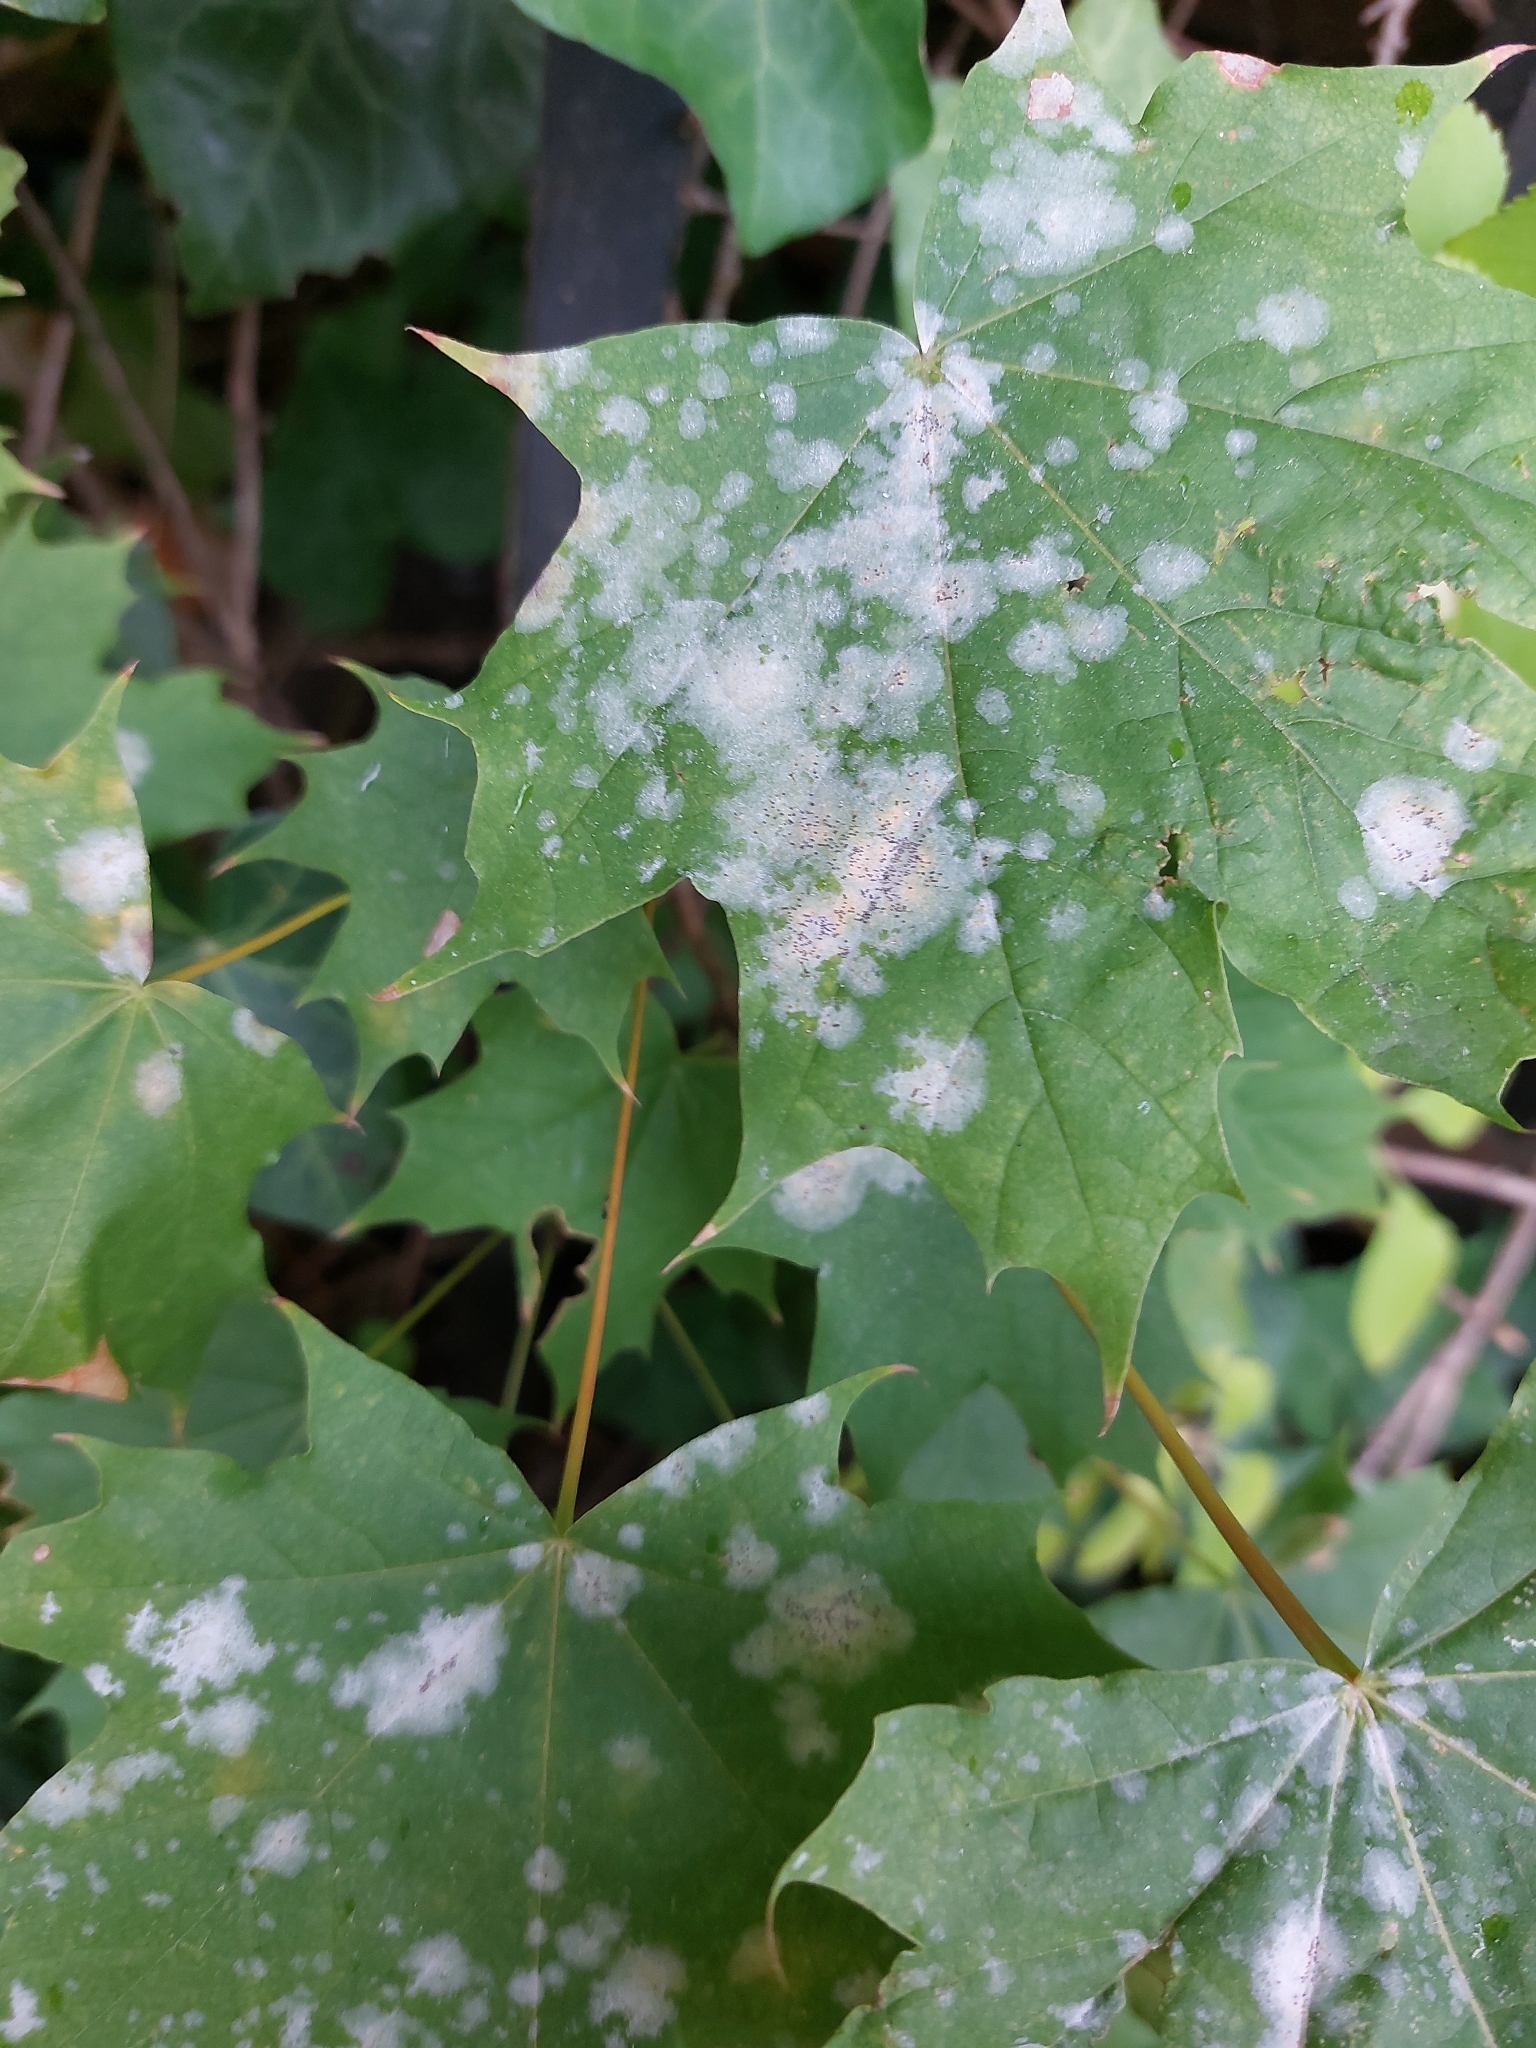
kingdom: Fungi
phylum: Ascomycota
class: Leotiomycetes
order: Helotiales
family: Erysiphaceae
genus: Sawadaea
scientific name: Sawadaea tulasnei
